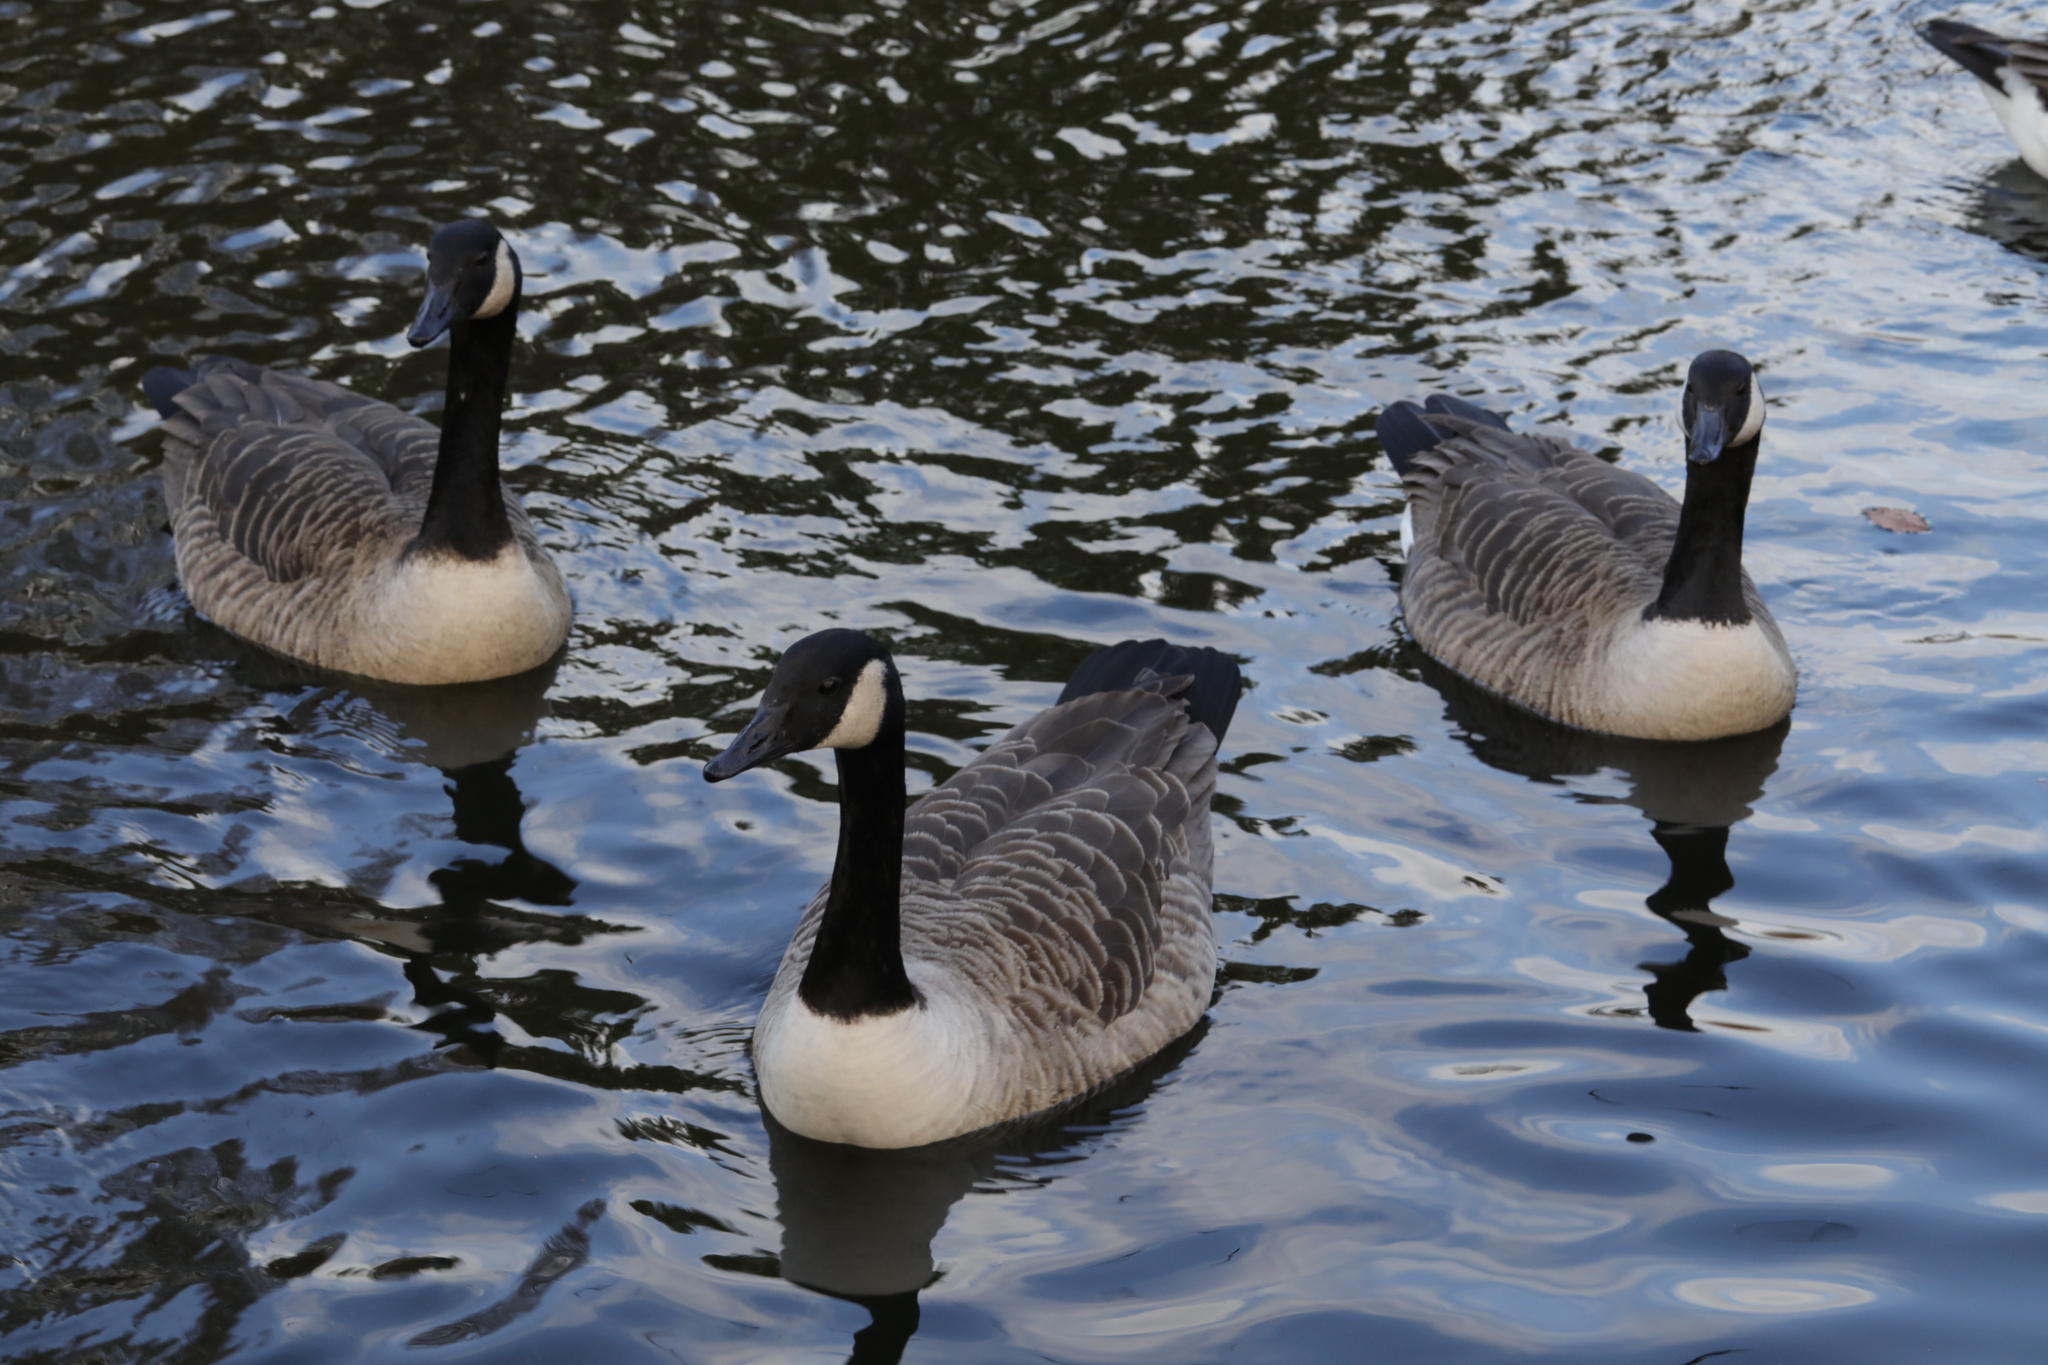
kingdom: Animalia
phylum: Chordata
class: Aves
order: Anseriformes
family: Anatidae
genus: Branta
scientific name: Branta canadensis
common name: Canada goose
